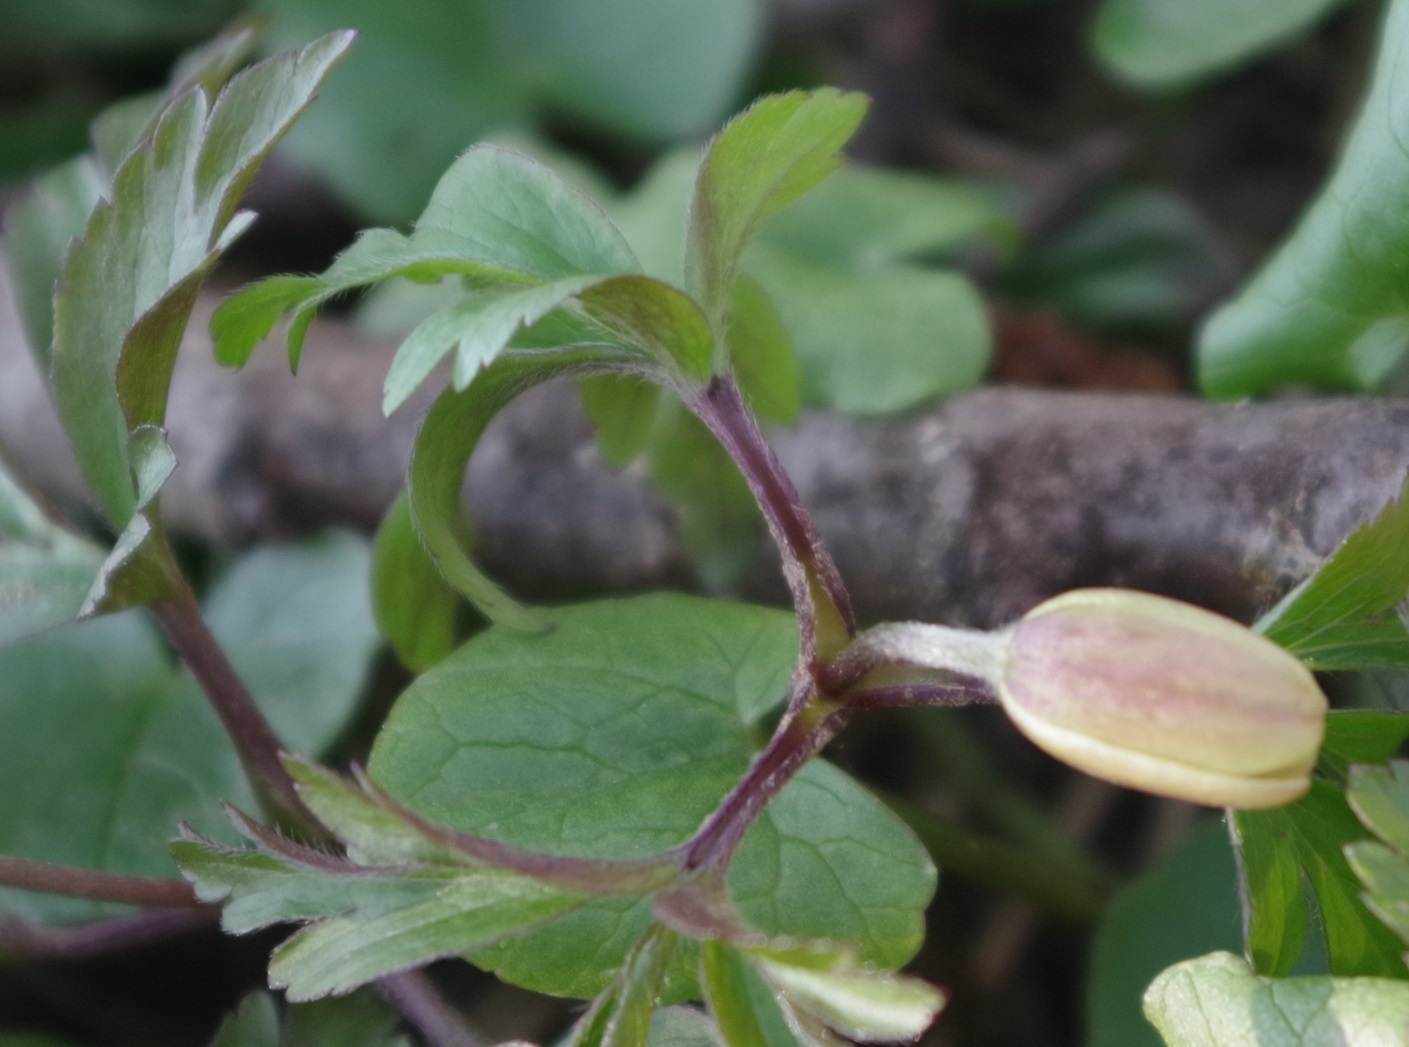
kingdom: Plantae
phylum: Tracheophyta
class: Magnoliopsida
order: Ranunculales
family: Ranunculaceae
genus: Anemone
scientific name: Anemone nemorosa
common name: Wood anemone
